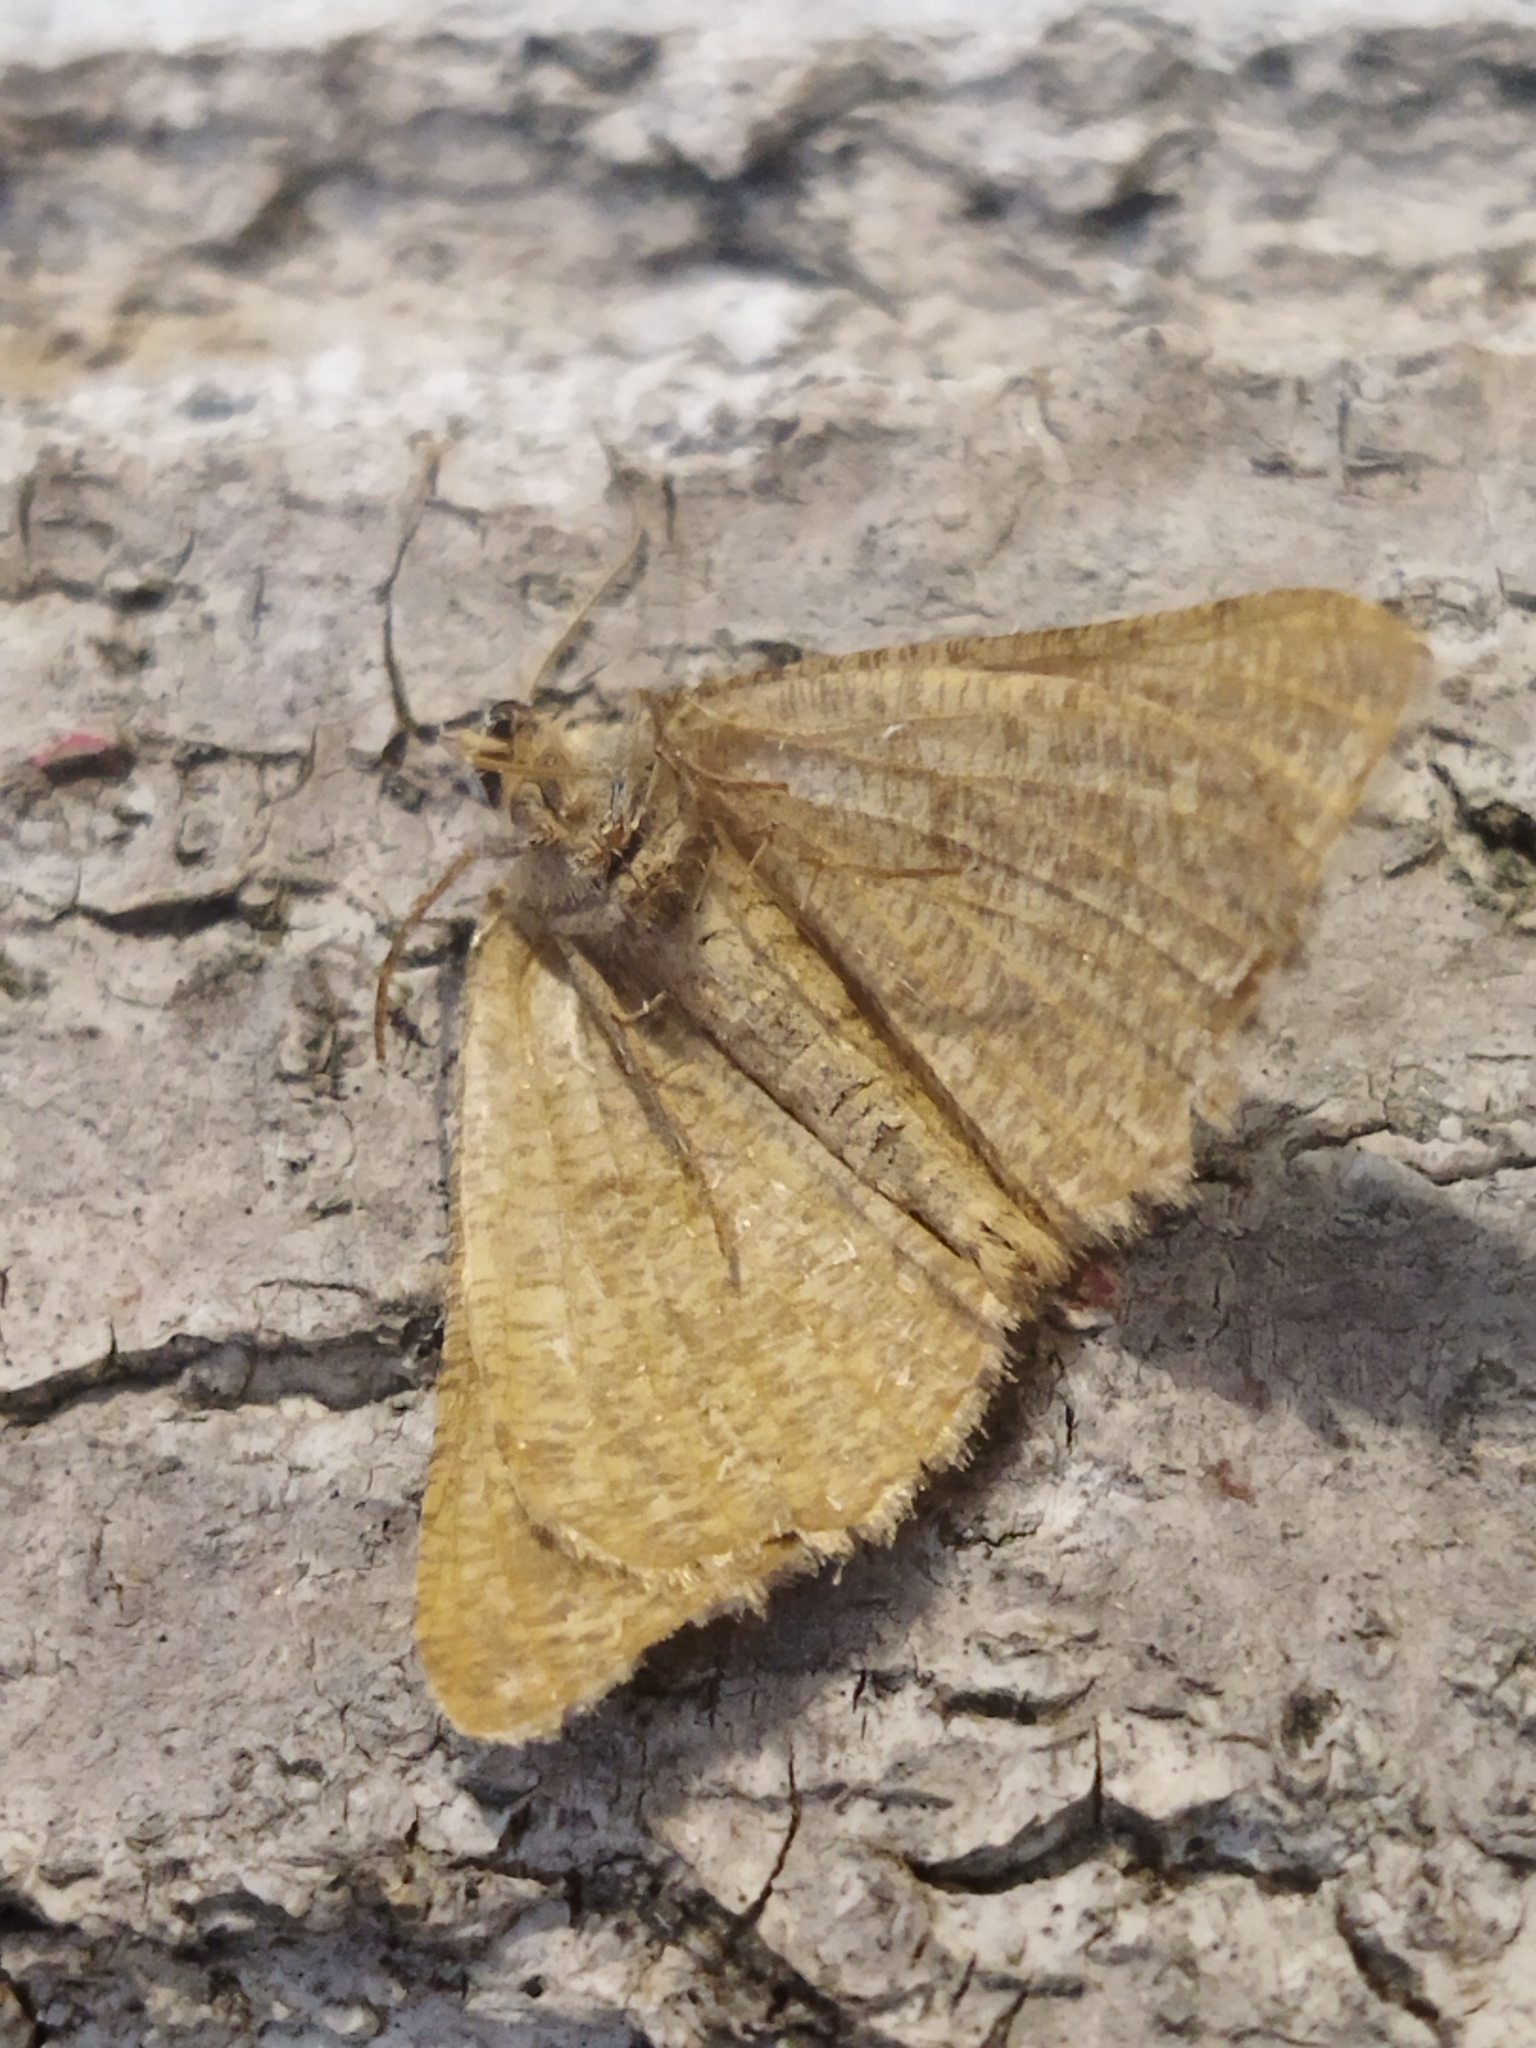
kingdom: Animalia
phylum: Arthropoda
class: Insecta
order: Lepidoptera
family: Geometridae
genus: Tephrina
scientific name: Tephrina murinaria
